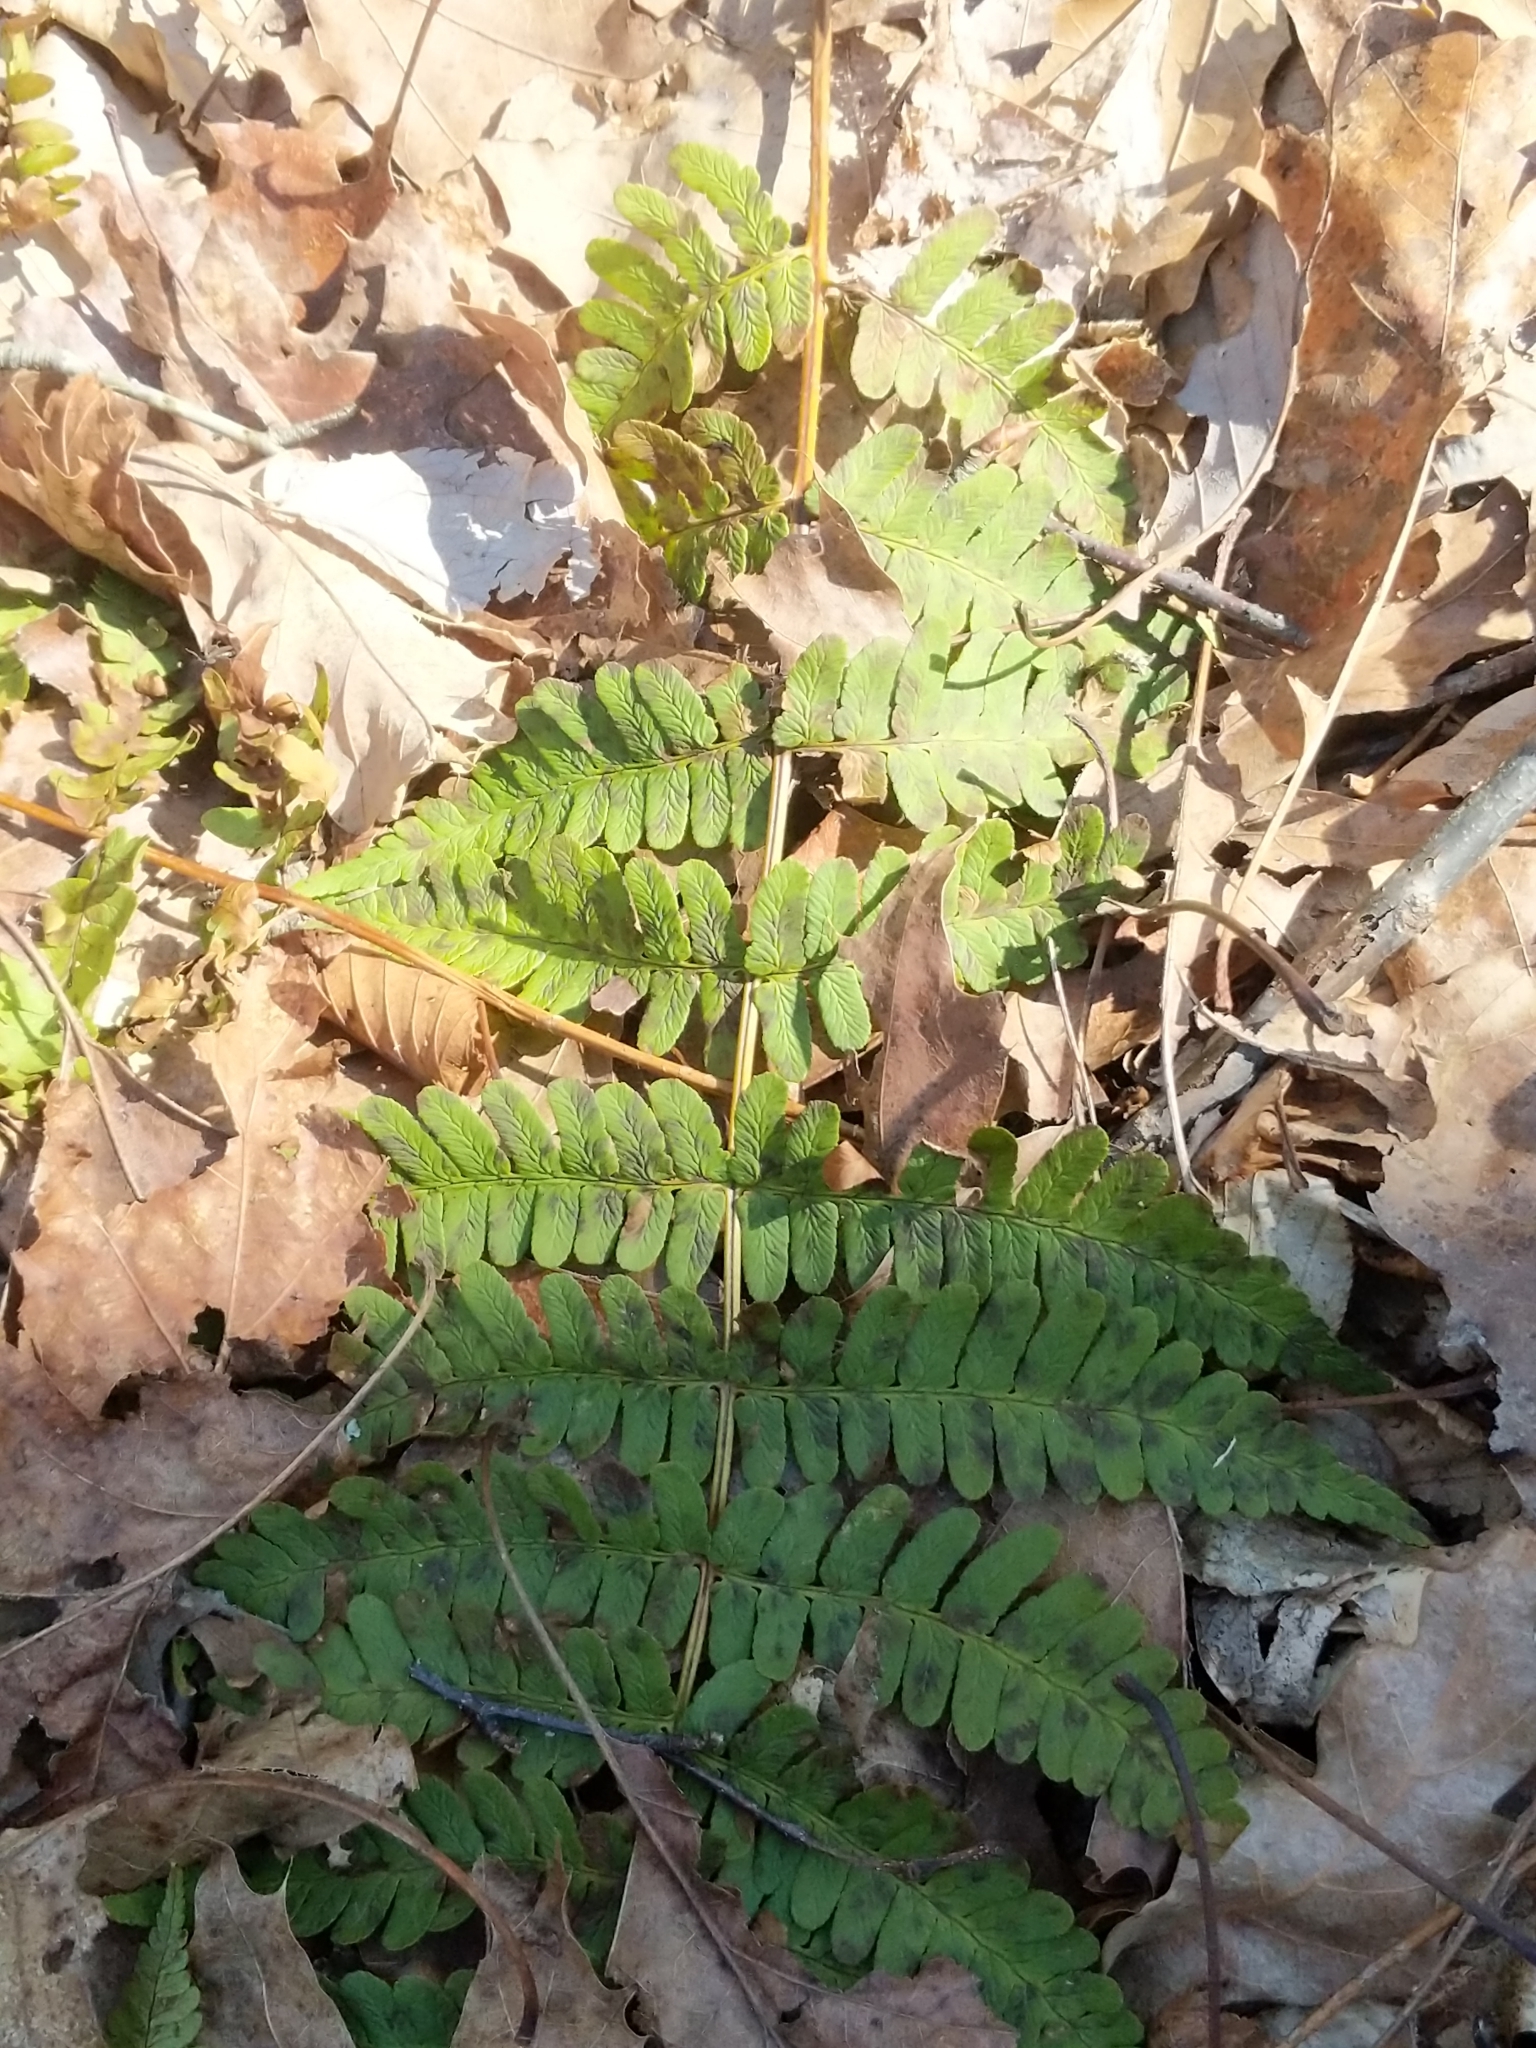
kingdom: Plantae
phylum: Tracheophyta
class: Polypodiopsida
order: Polypodiales
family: Dryopteridaceae
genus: Dryopteris
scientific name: Dryopteris marginalis
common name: Marginal wood fern
